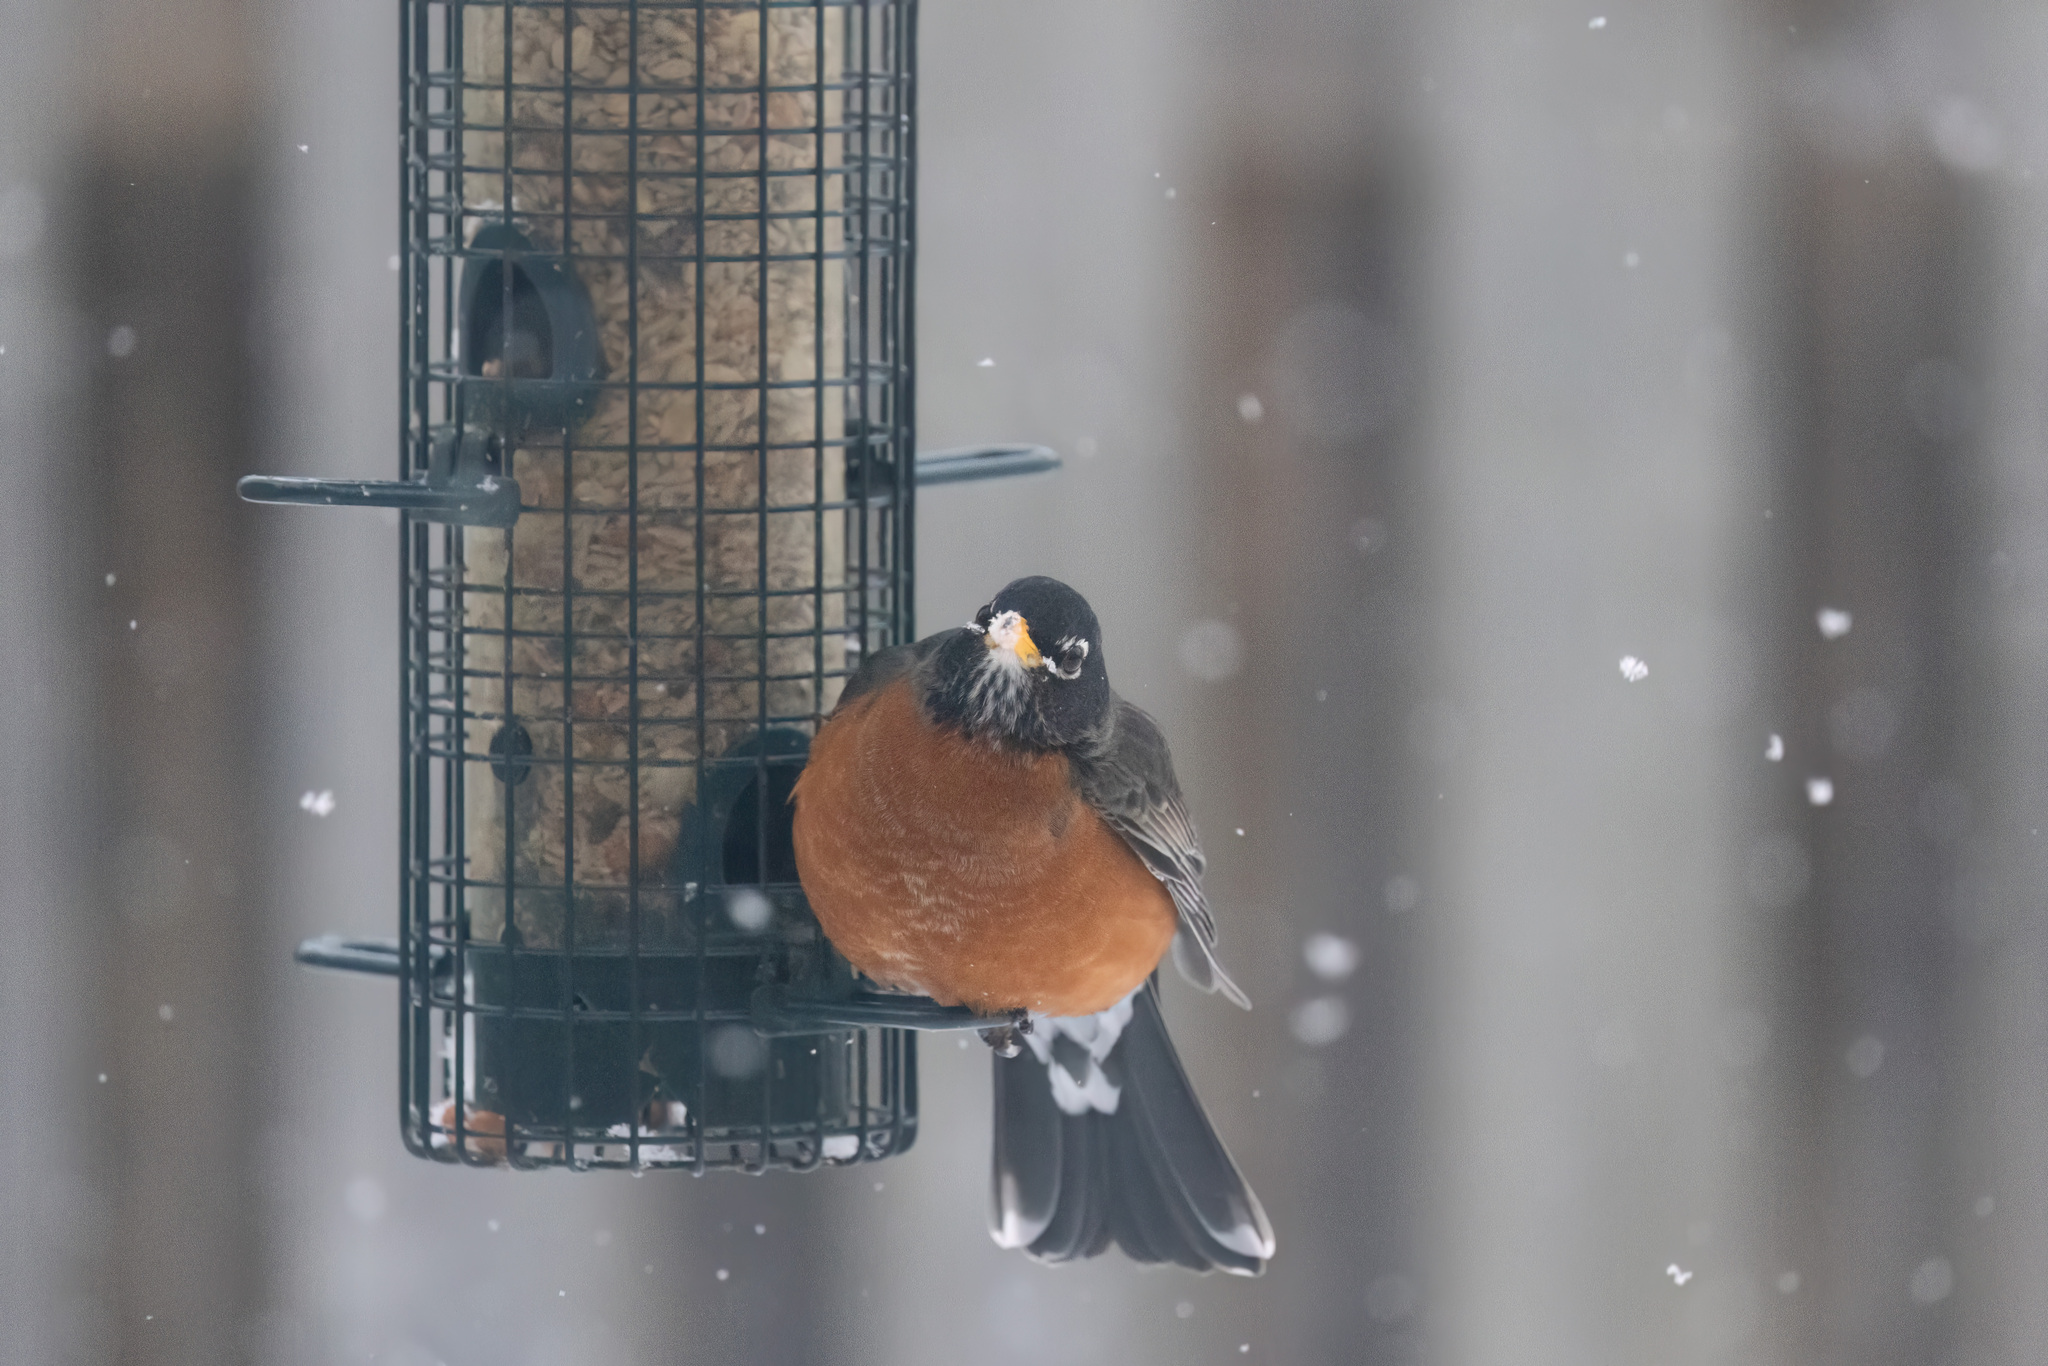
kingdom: Animalia
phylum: Chordata
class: Aves
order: Passeriformes
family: Turdidae
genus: Turdus
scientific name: Turdus migratorius
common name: American robin
